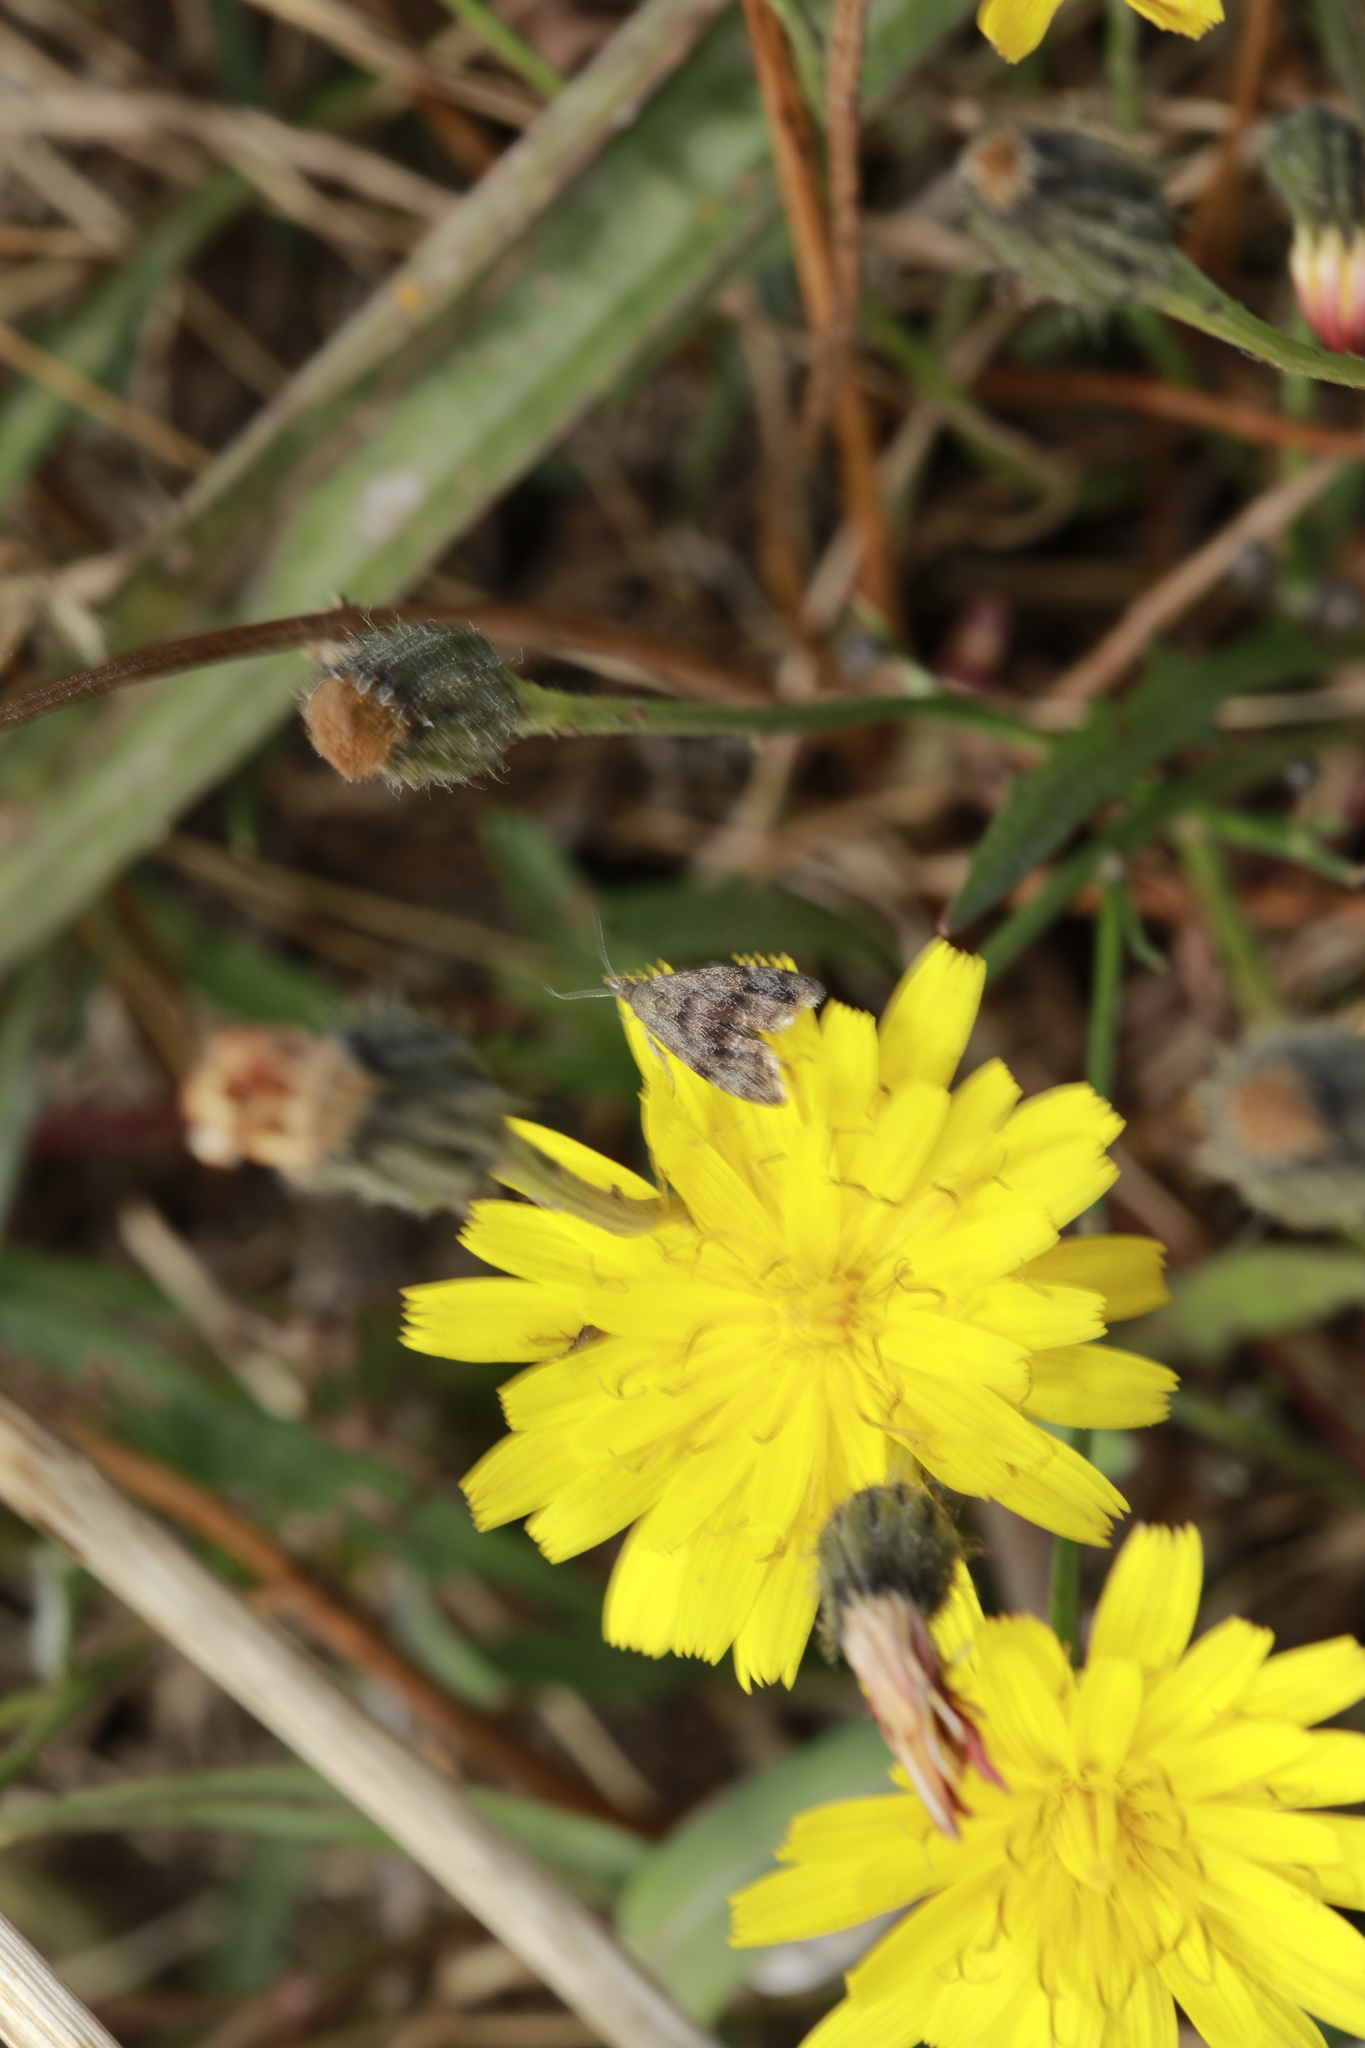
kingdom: Animalia
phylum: Arthropoda
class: Insecta
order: Lepidoptera
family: Choreutidae
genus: Anthophila
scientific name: Anthophila fabriciana
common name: Nettle-tap
